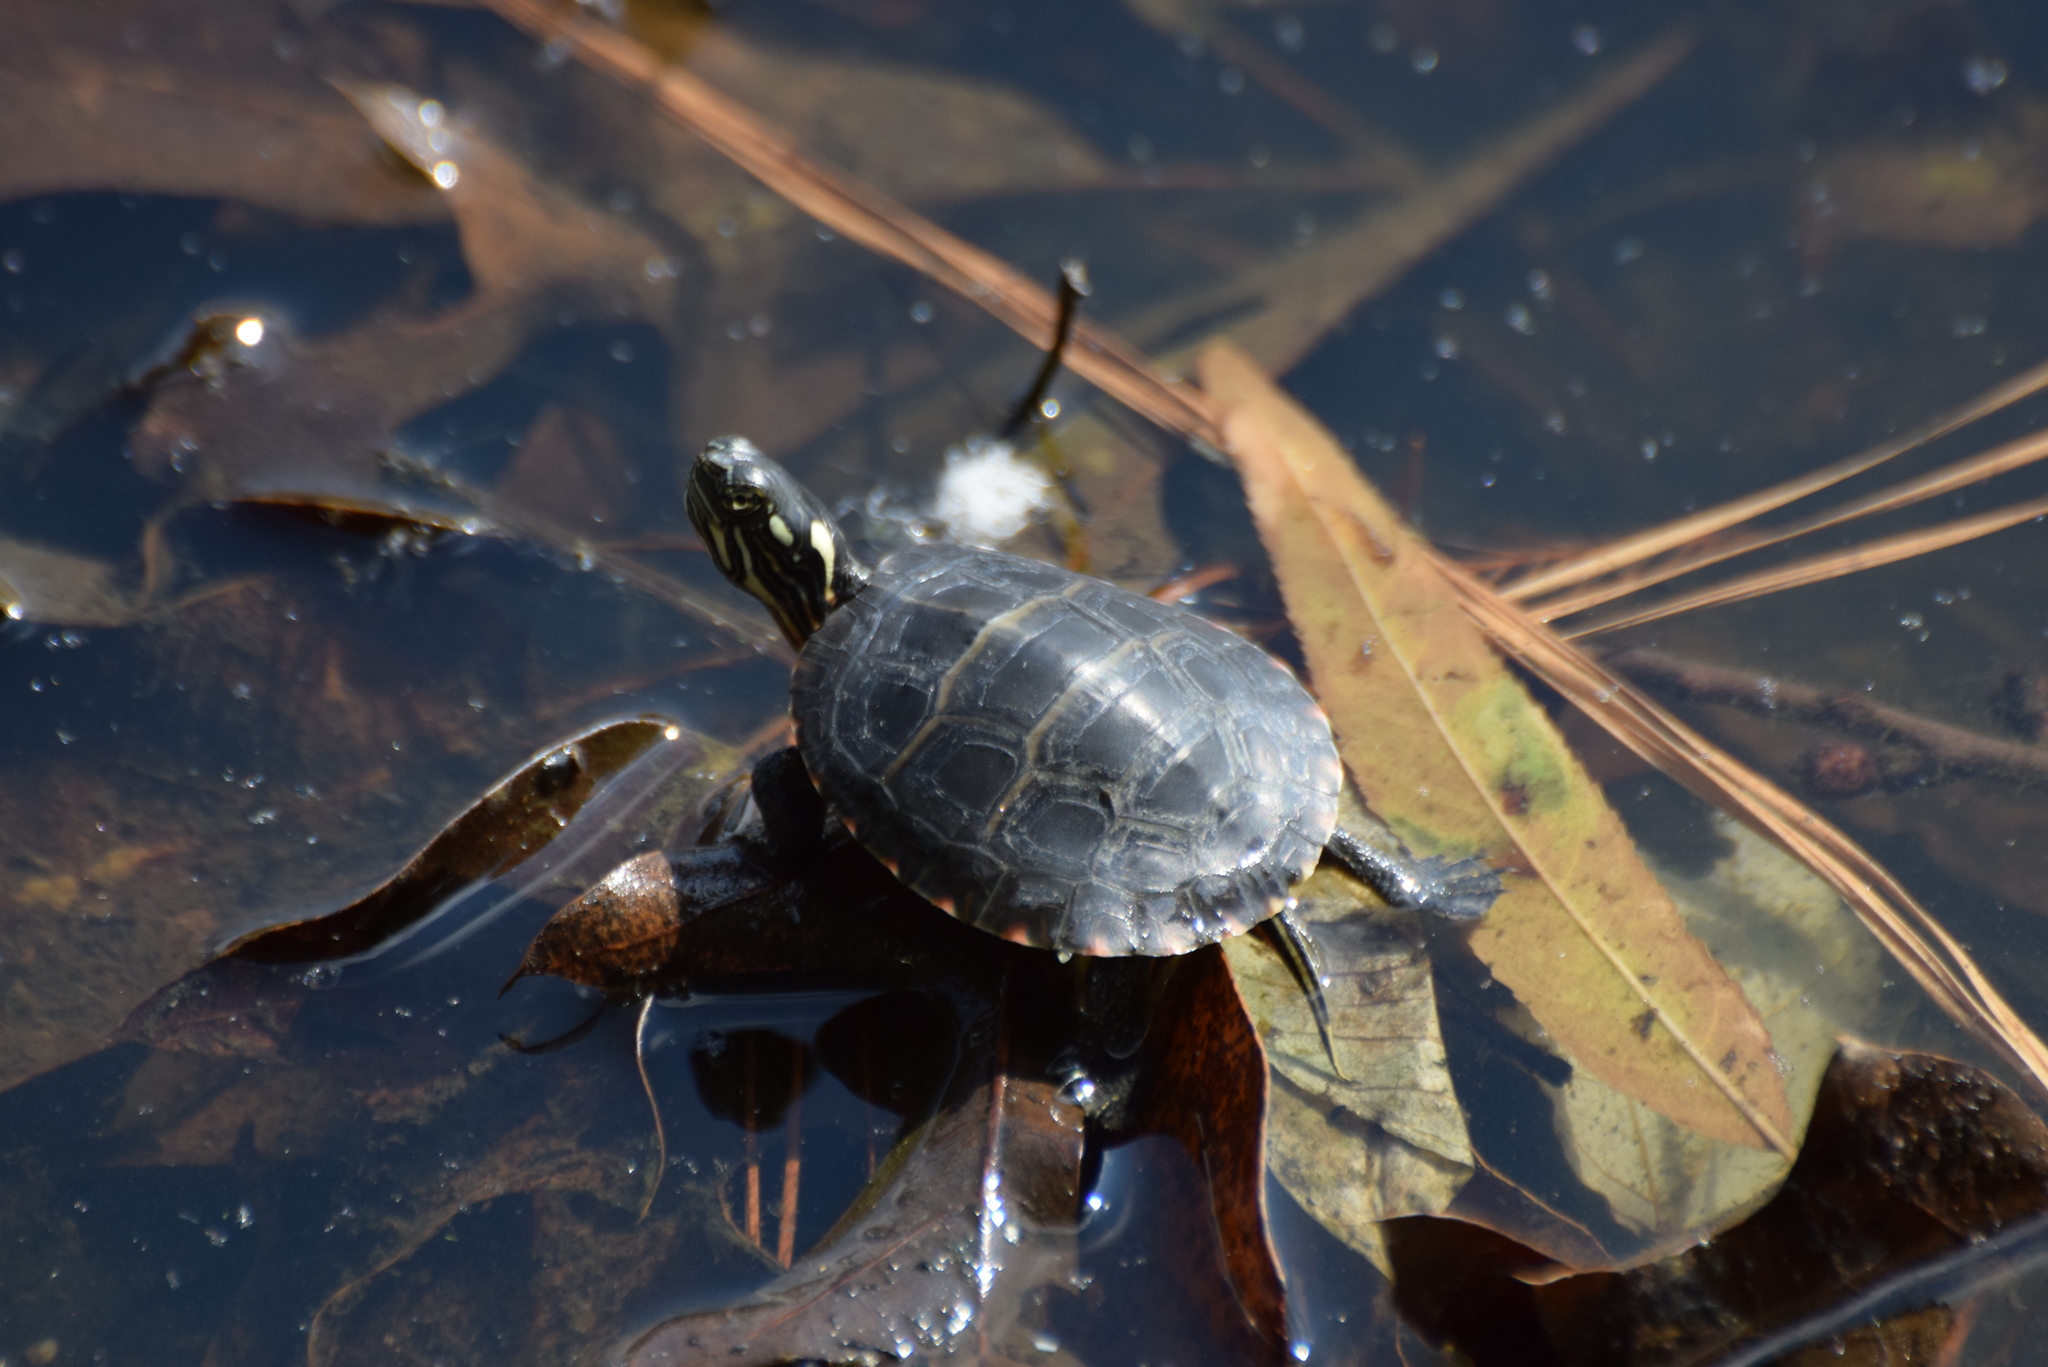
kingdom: Animalia
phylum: Chordata
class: Testudines
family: Emydidae
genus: Chrysemys
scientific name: Chrysemys picta
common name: Painted turtle
